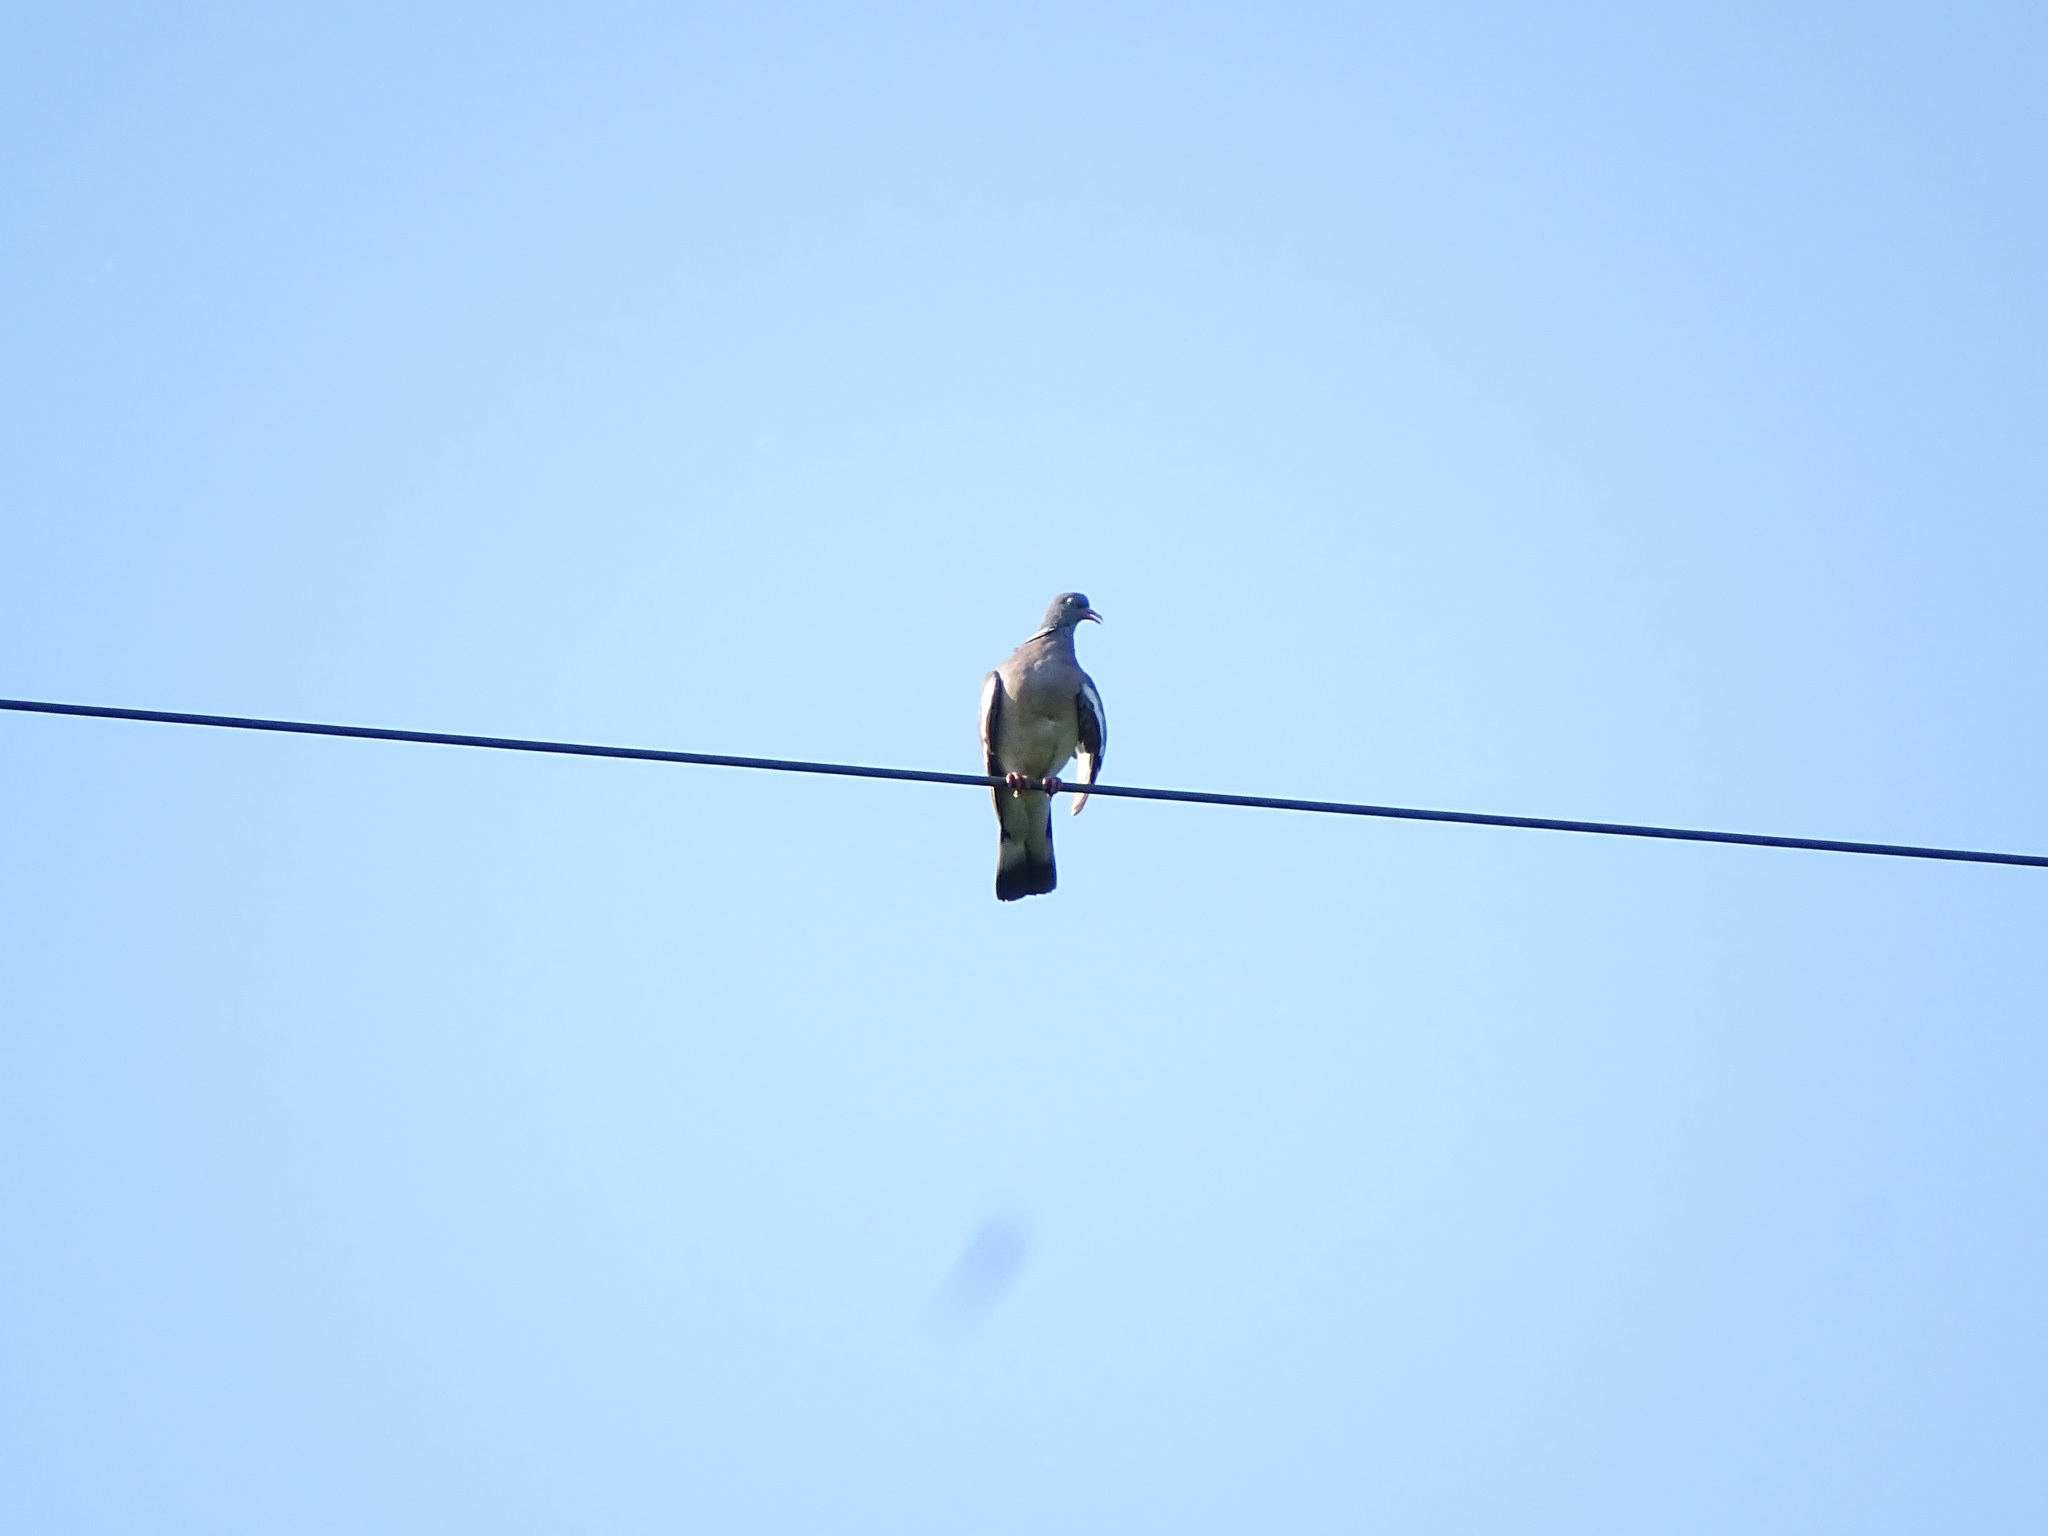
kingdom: Animalia
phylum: Chordata
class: Aves
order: Columbiformes
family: Columbidae
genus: Columba
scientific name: Columba palumbus
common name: Common wood pigeon
